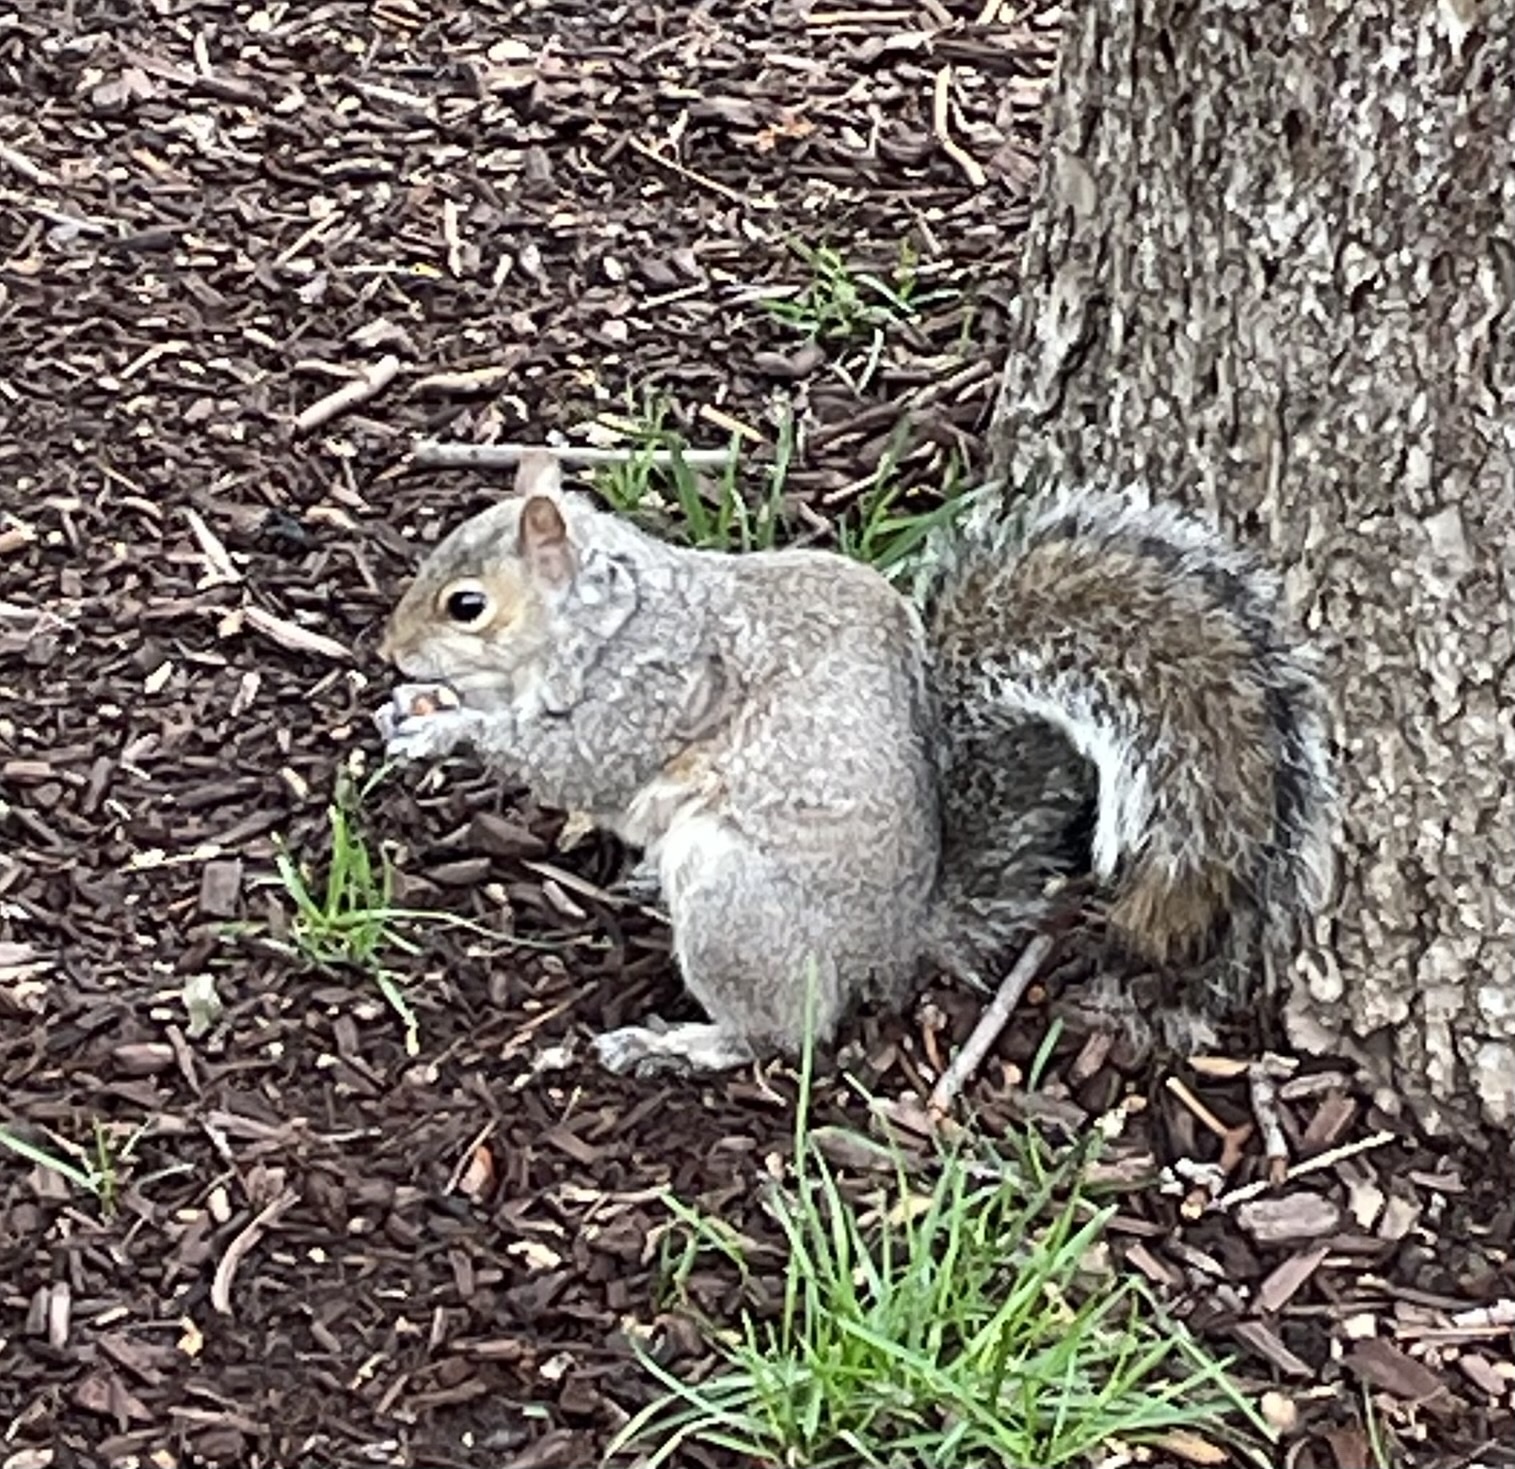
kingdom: Animalia
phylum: Chordata
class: Mammalia
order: Rodentia
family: Sciuridae
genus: Sciurus
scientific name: Sciurus carolinensis
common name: Eastern gray squirrel
